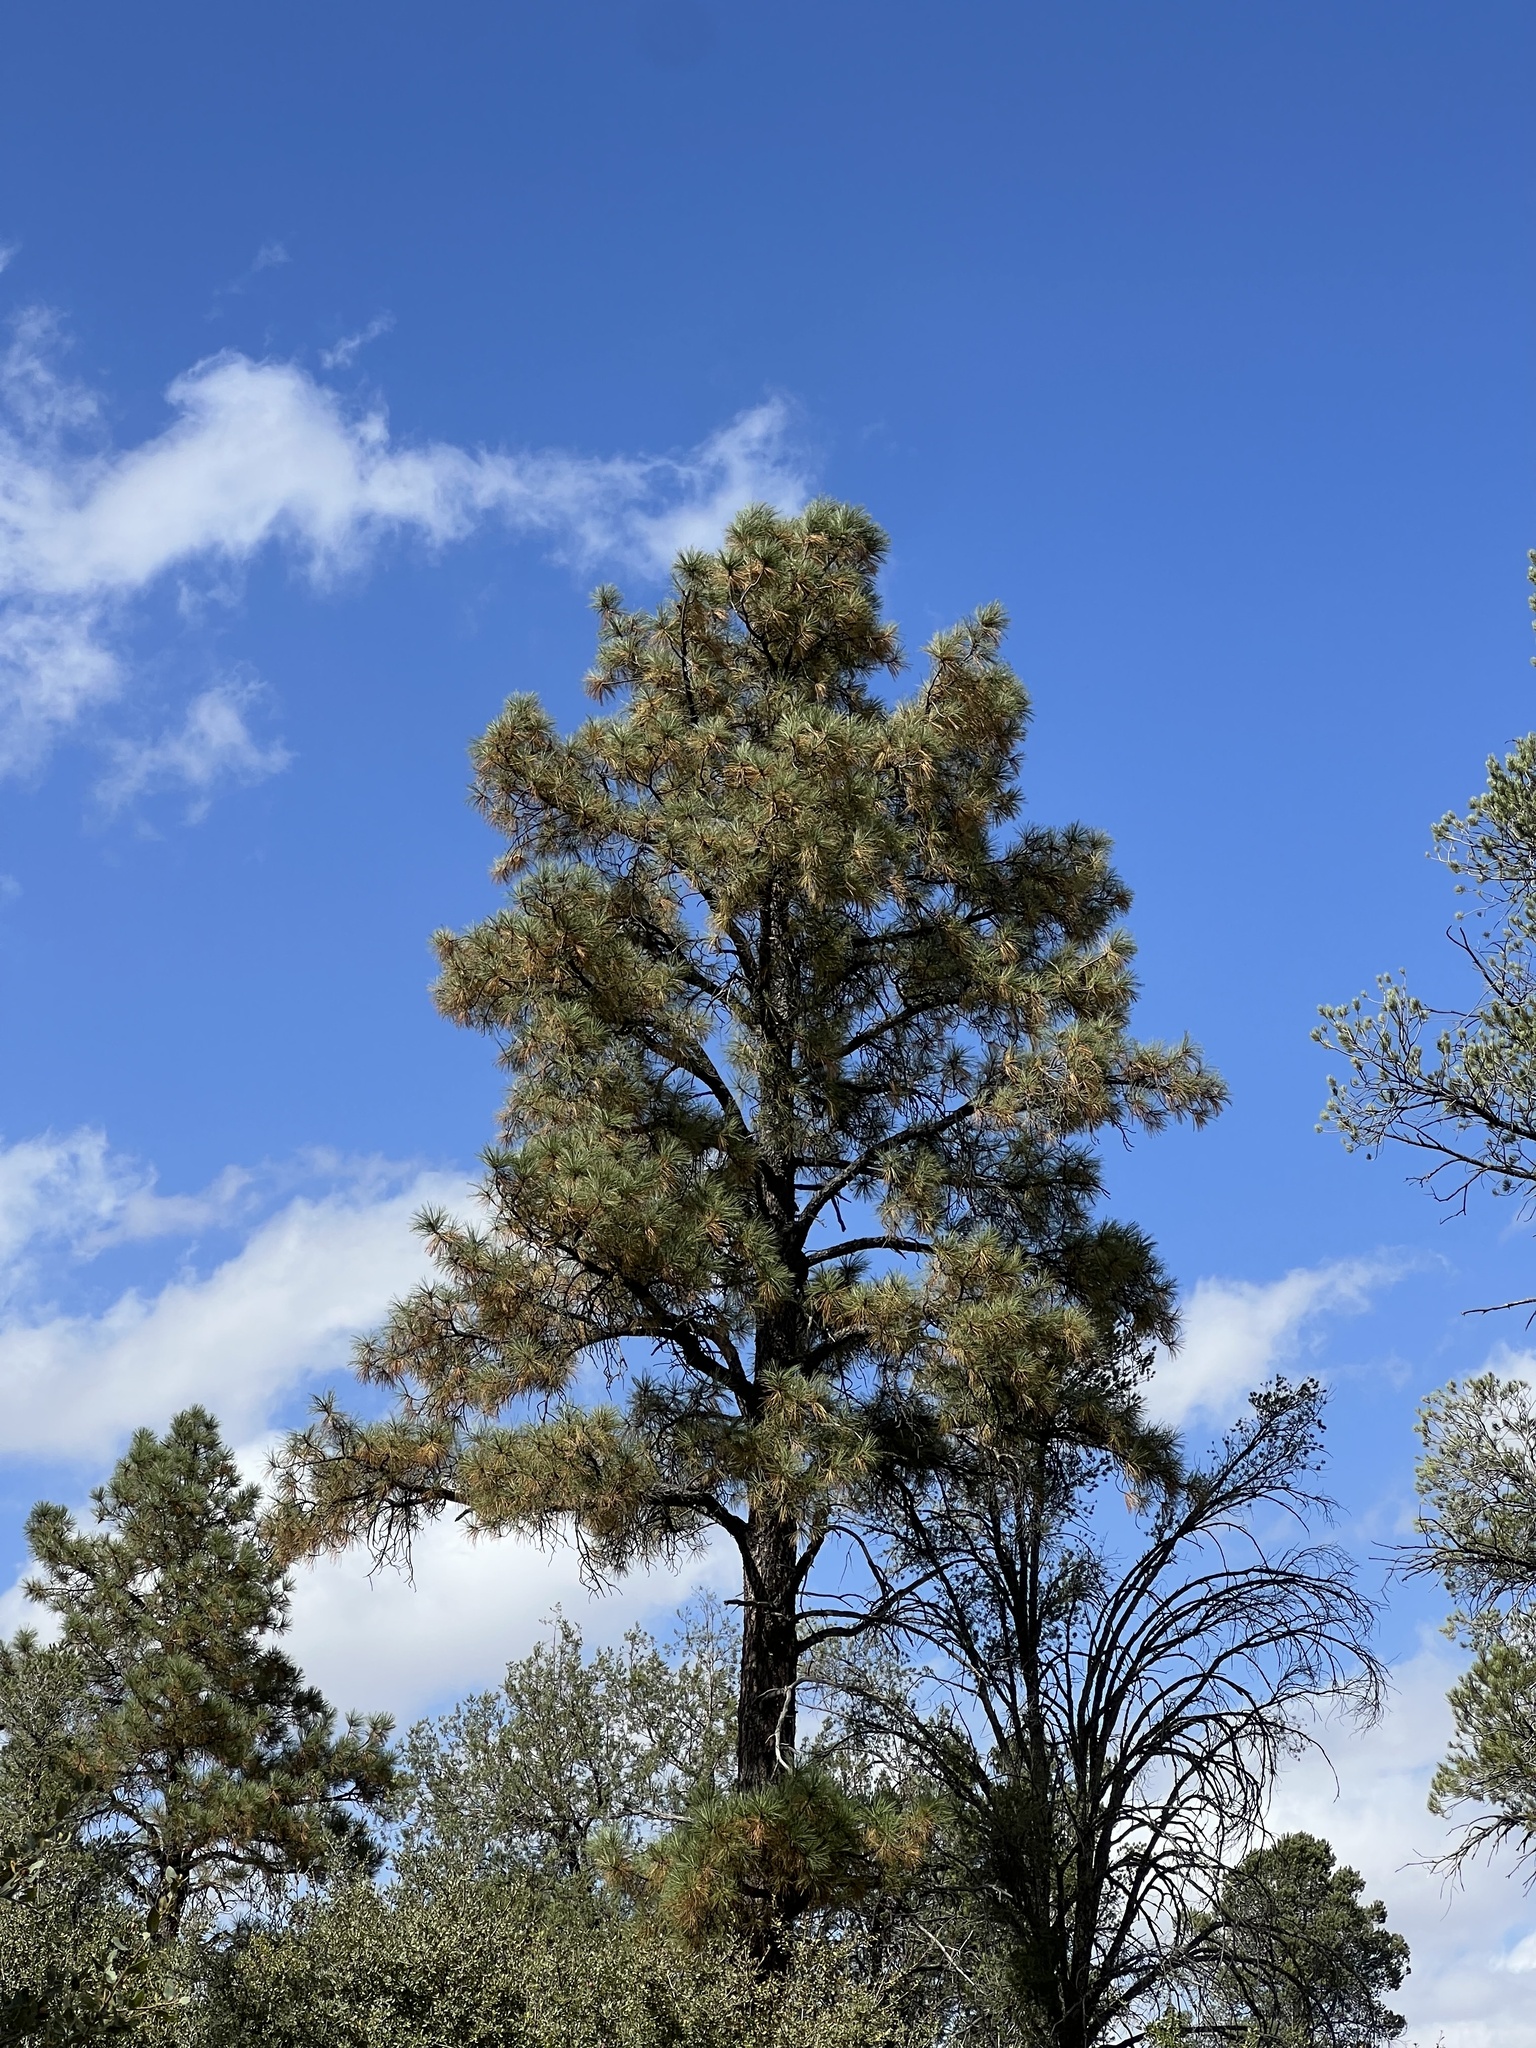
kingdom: Plantae
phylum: Tracheophyta
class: Pinopsida
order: Pinales
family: Pinaceae
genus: Pinus
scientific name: Pinus ponderosa
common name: Western yellow-pine
